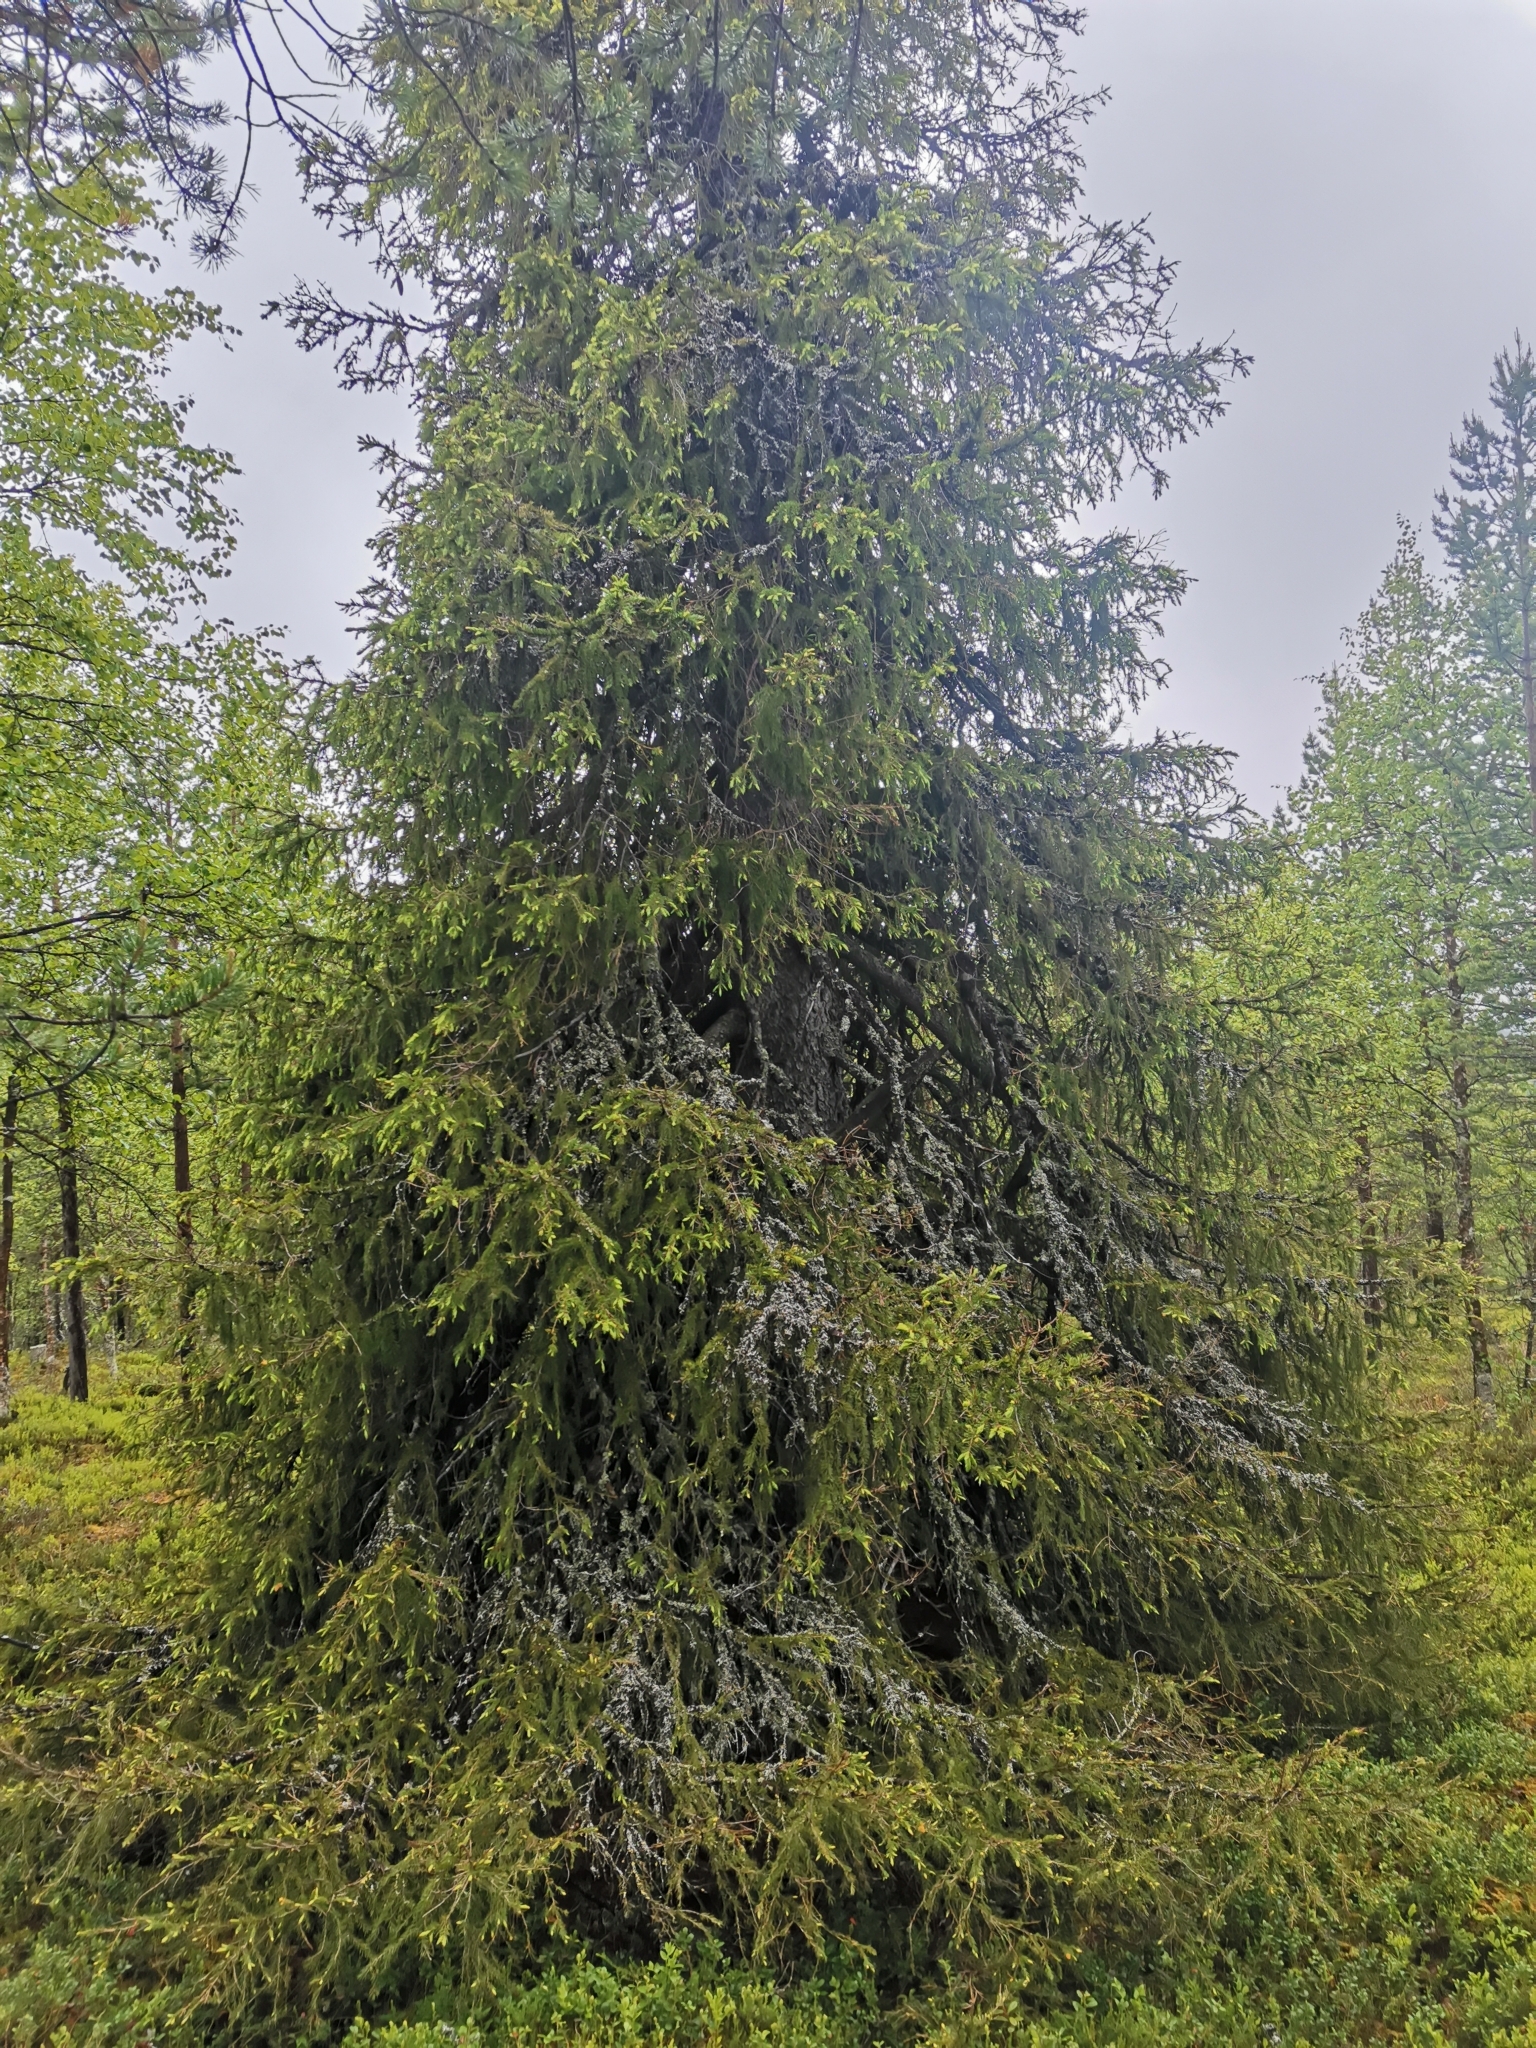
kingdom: Plantae
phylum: Tracheophyta
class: Pinopsida
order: Pinales
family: Pinaceae
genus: Picea
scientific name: Picea obovata
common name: Siberian spruce
